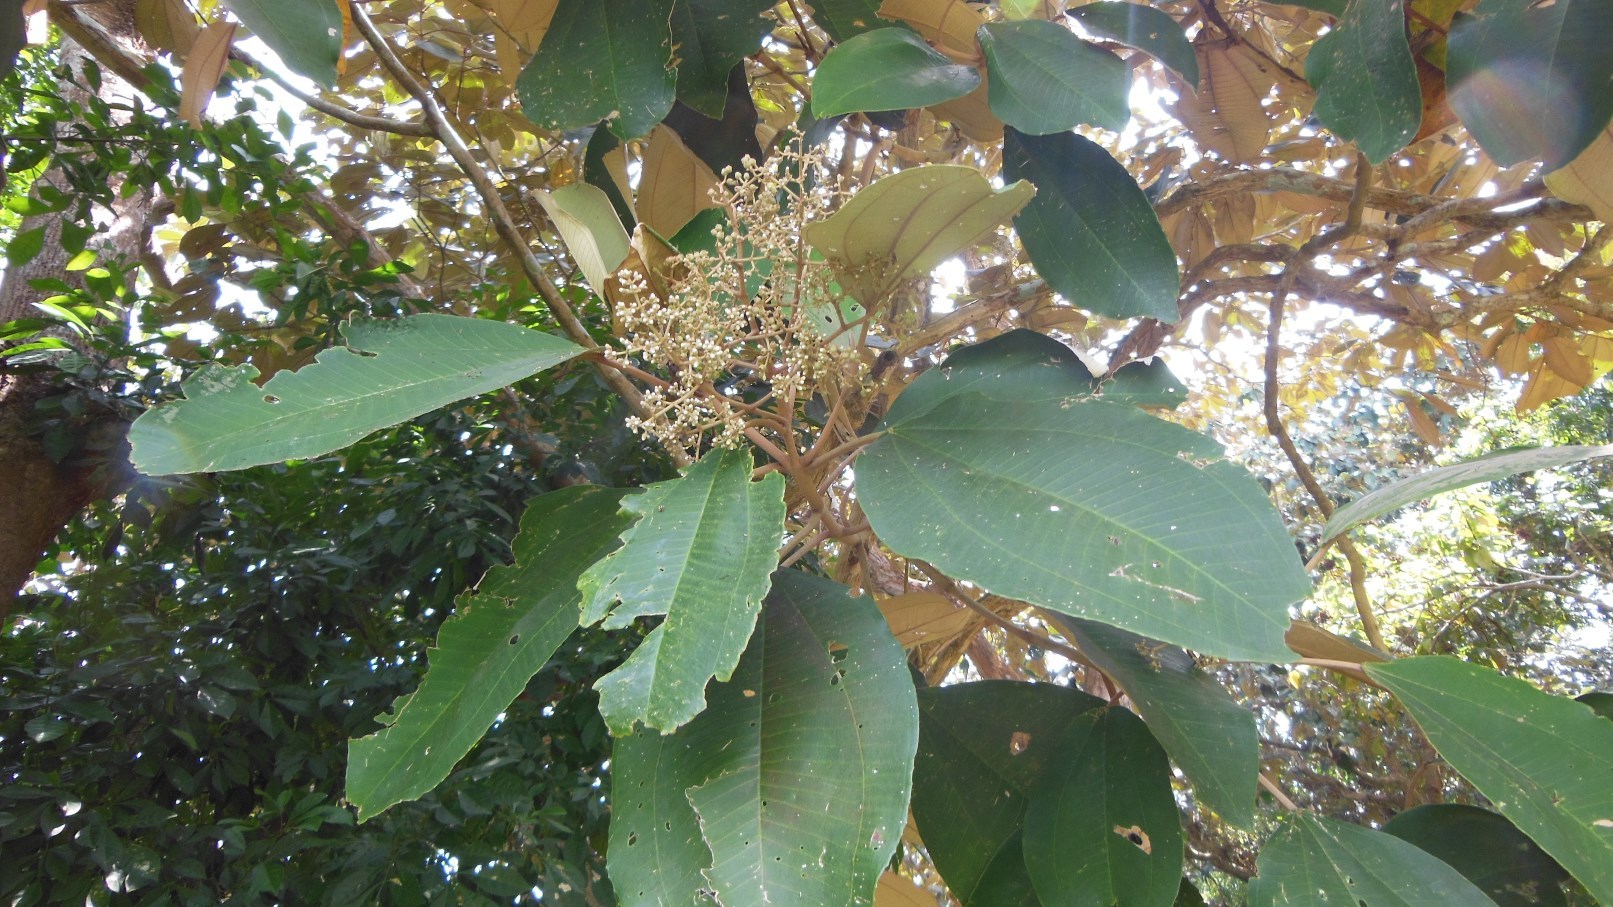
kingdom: Plantae
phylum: Tracheophyta
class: Magnoliopsida
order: Myrtales
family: Melastomataceae
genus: Miconia
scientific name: Miconia argentea
